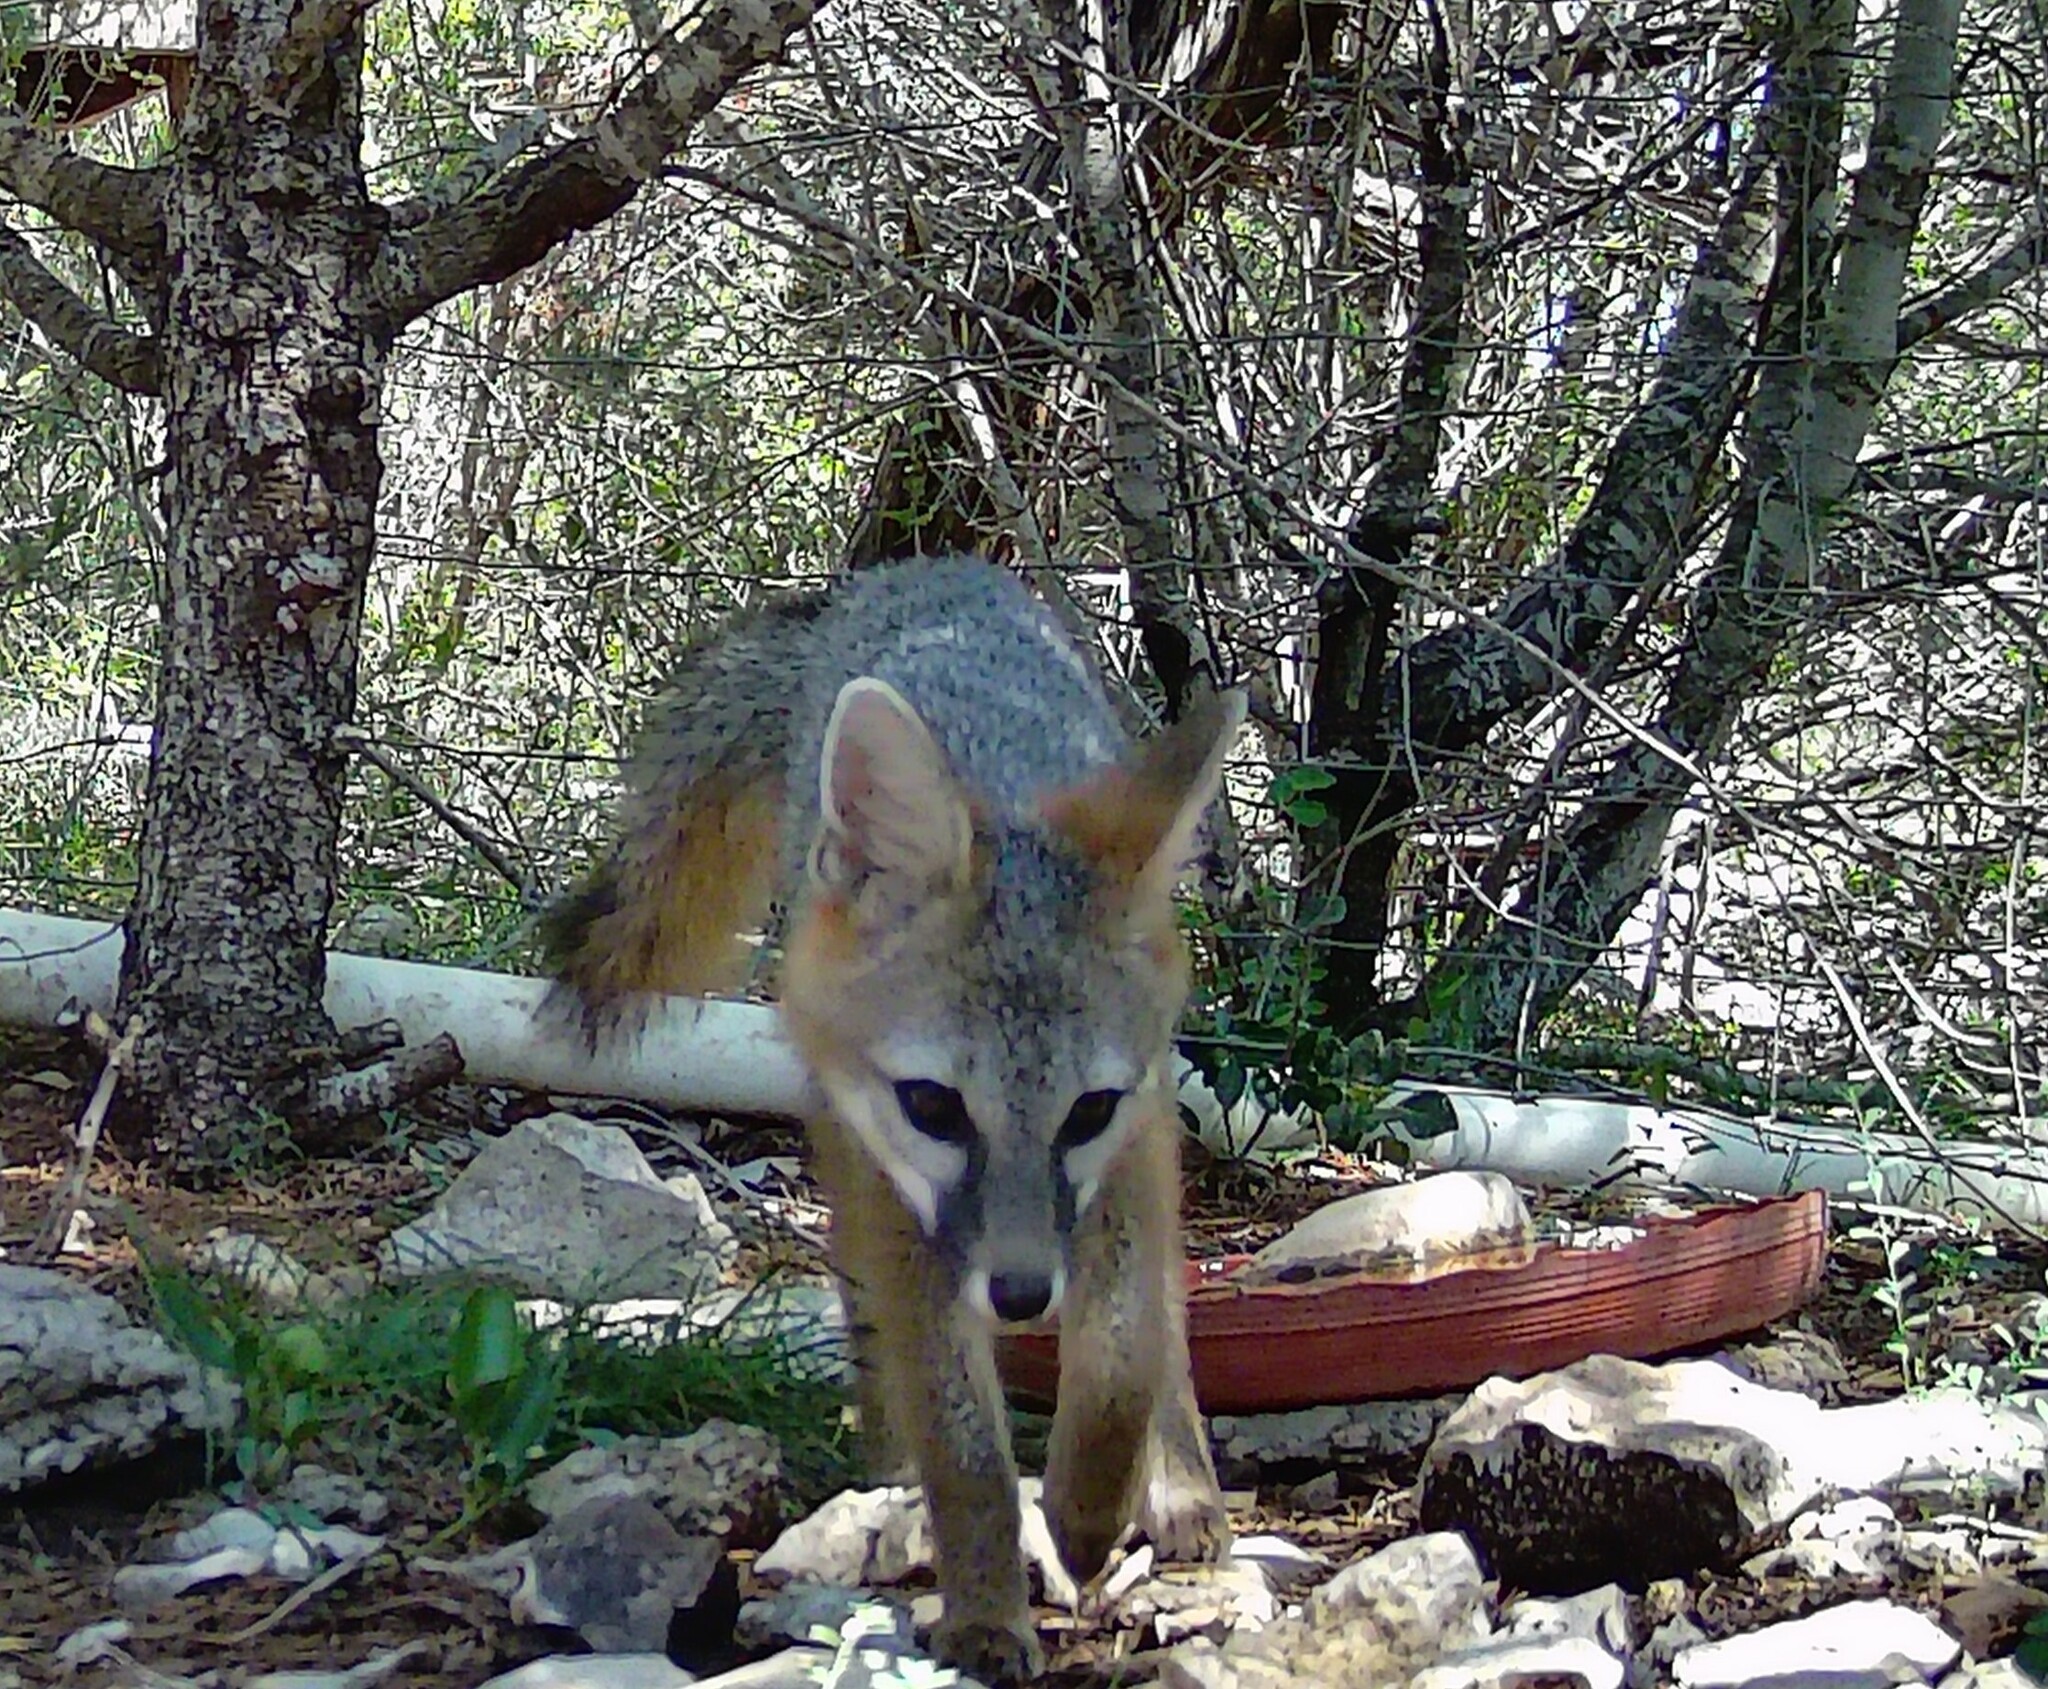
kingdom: Animalia
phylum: Chordata
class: Mammalia
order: Carnivora
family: Canidae
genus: Urocyon
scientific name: Urocyon cinereoargenteus
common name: Gray fox
